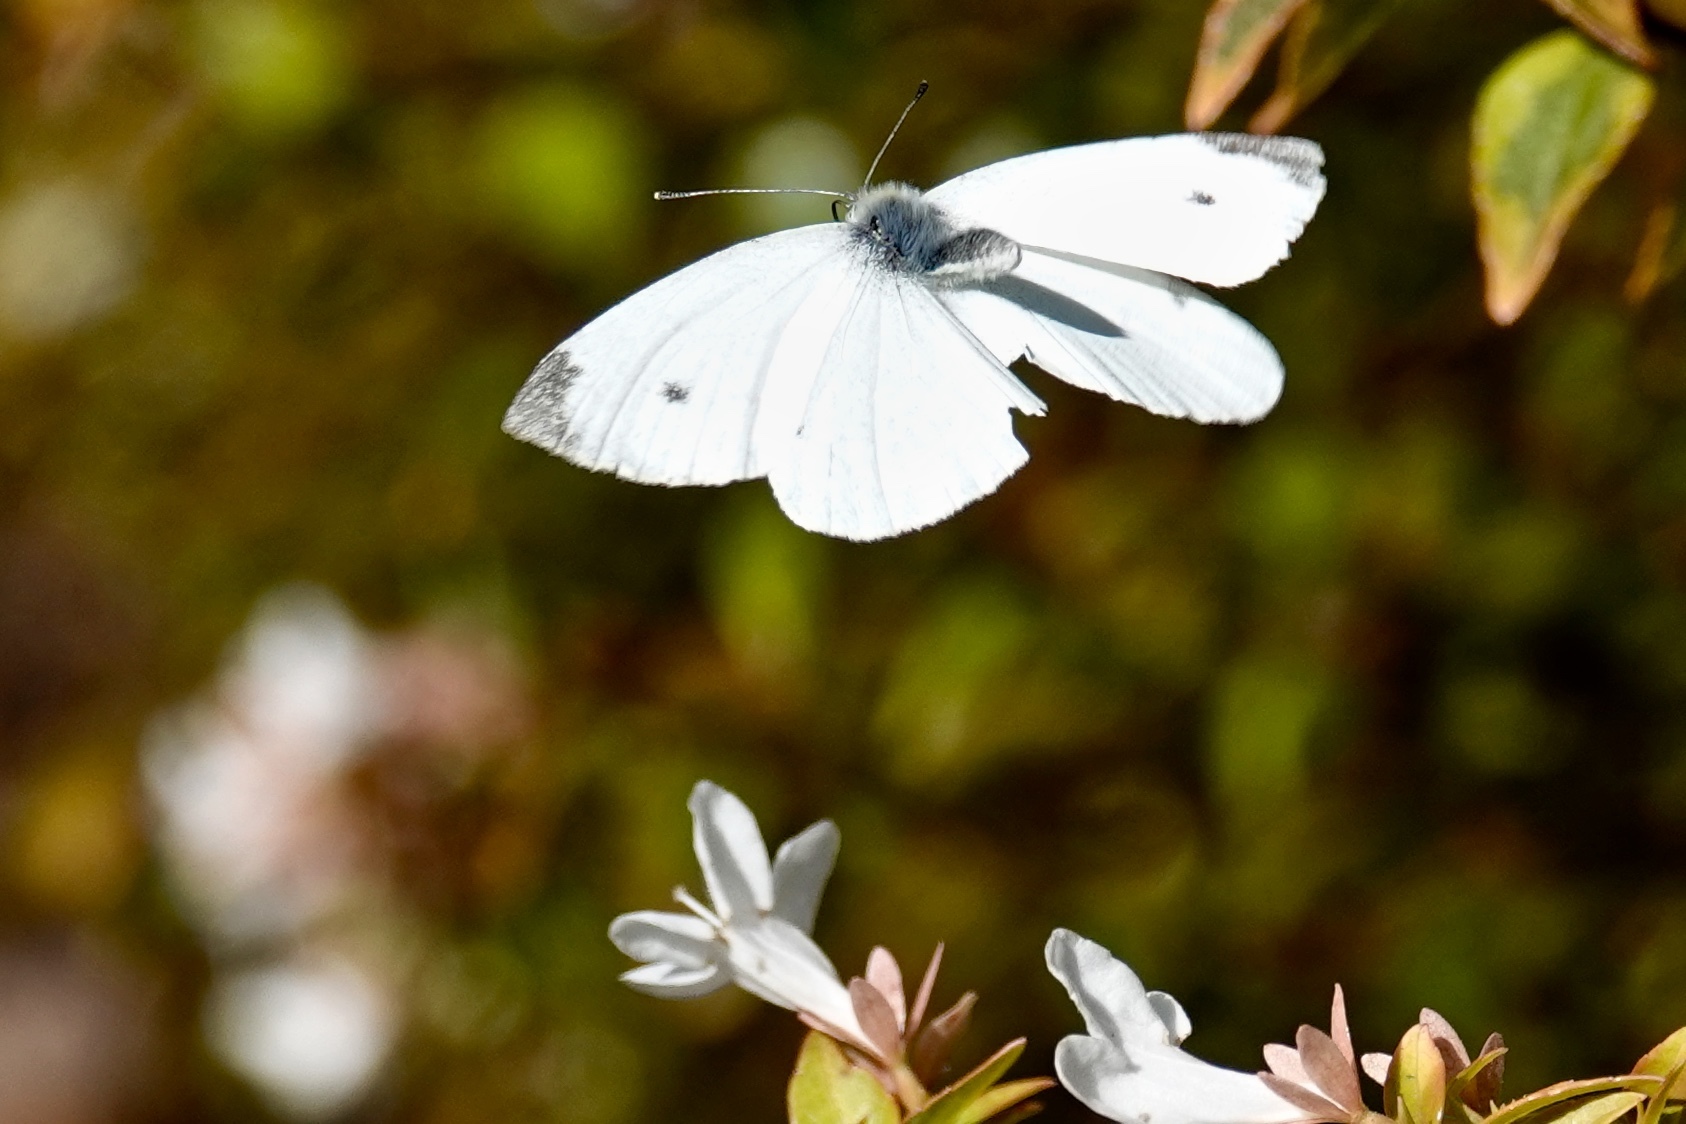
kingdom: Animalia
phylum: Arthropoda
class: Insecta
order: Lepidoptera
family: Pieridae
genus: Pieris
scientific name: Pieris rapae
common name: Small white
